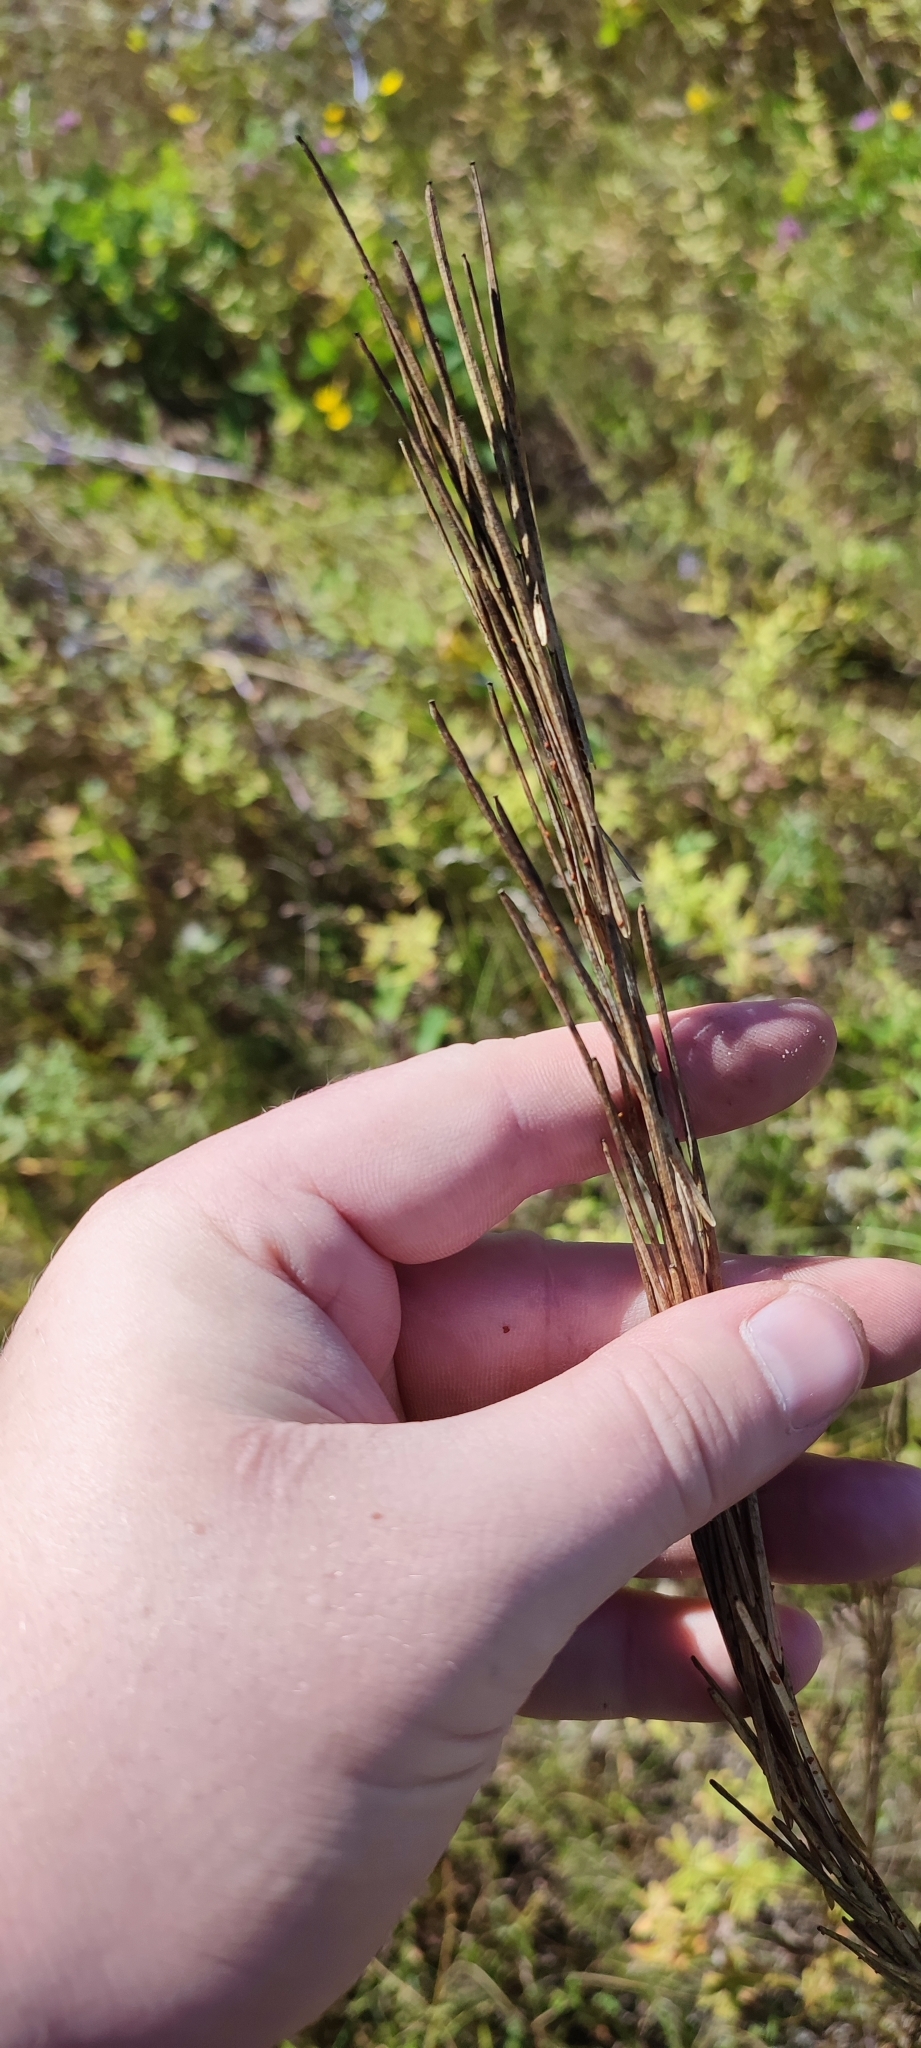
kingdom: Plantae
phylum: Tracheophyta
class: Magnoliopsida
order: Brassicales
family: Brassicaceae
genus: Turritis
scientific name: Turritis glabra
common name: Tower rockcress
